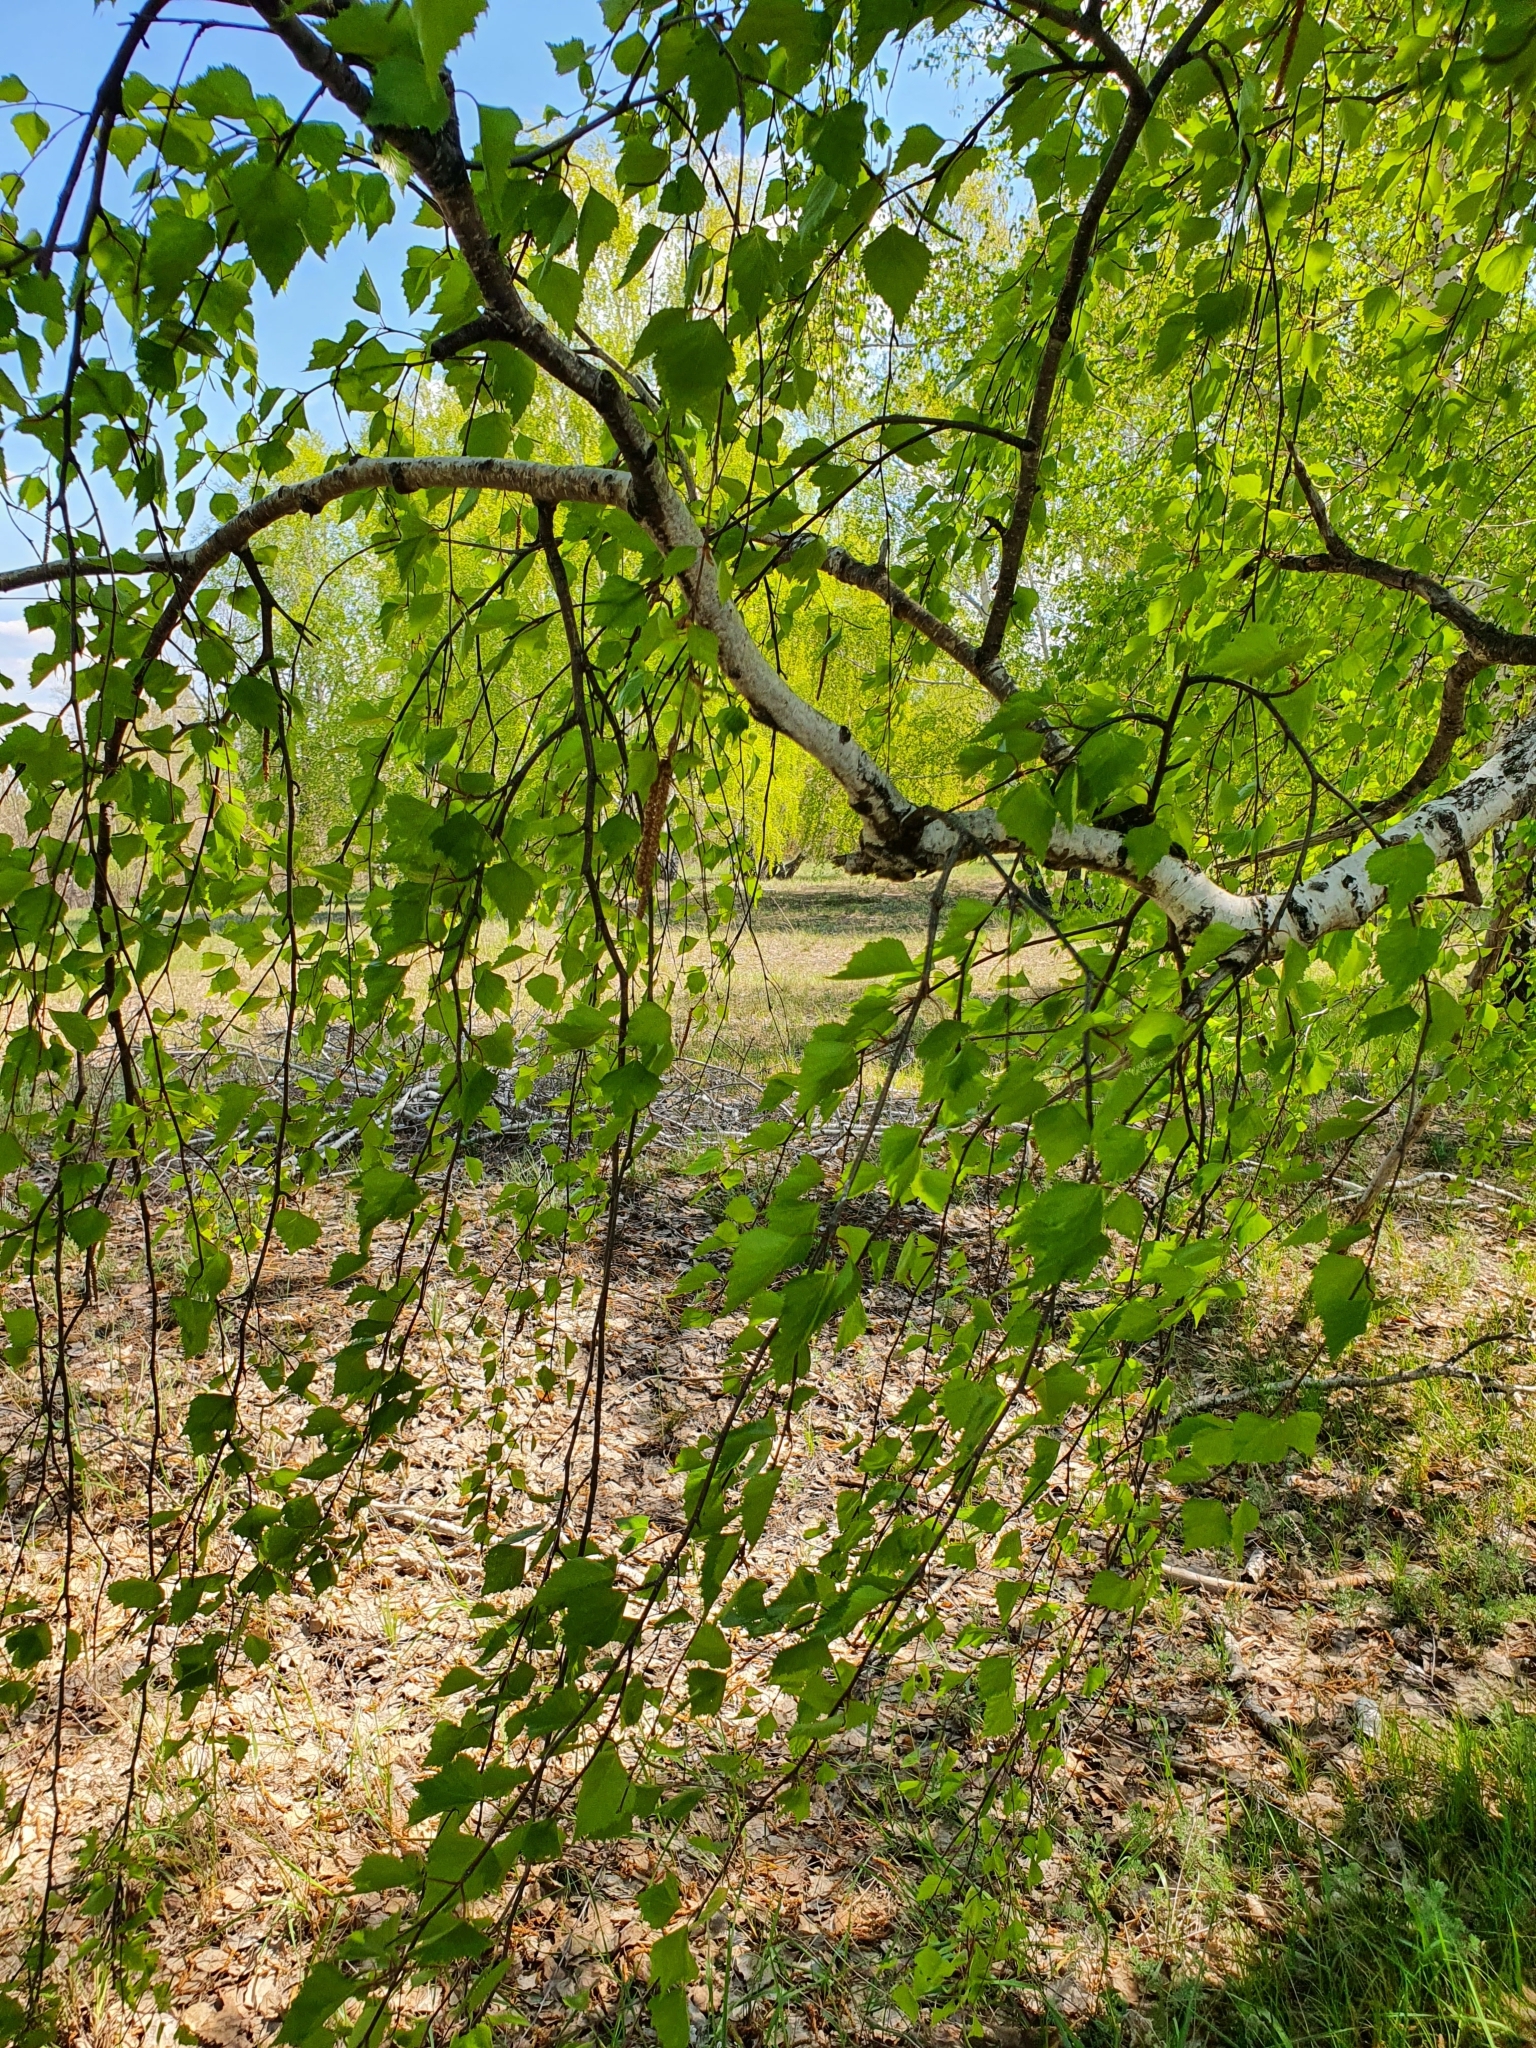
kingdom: Plantae
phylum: Tracheophyta
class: Magnoliopsida
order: Fagales
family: Betulaceae
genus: Betula
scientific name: Betula pendula
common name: Silver birch
